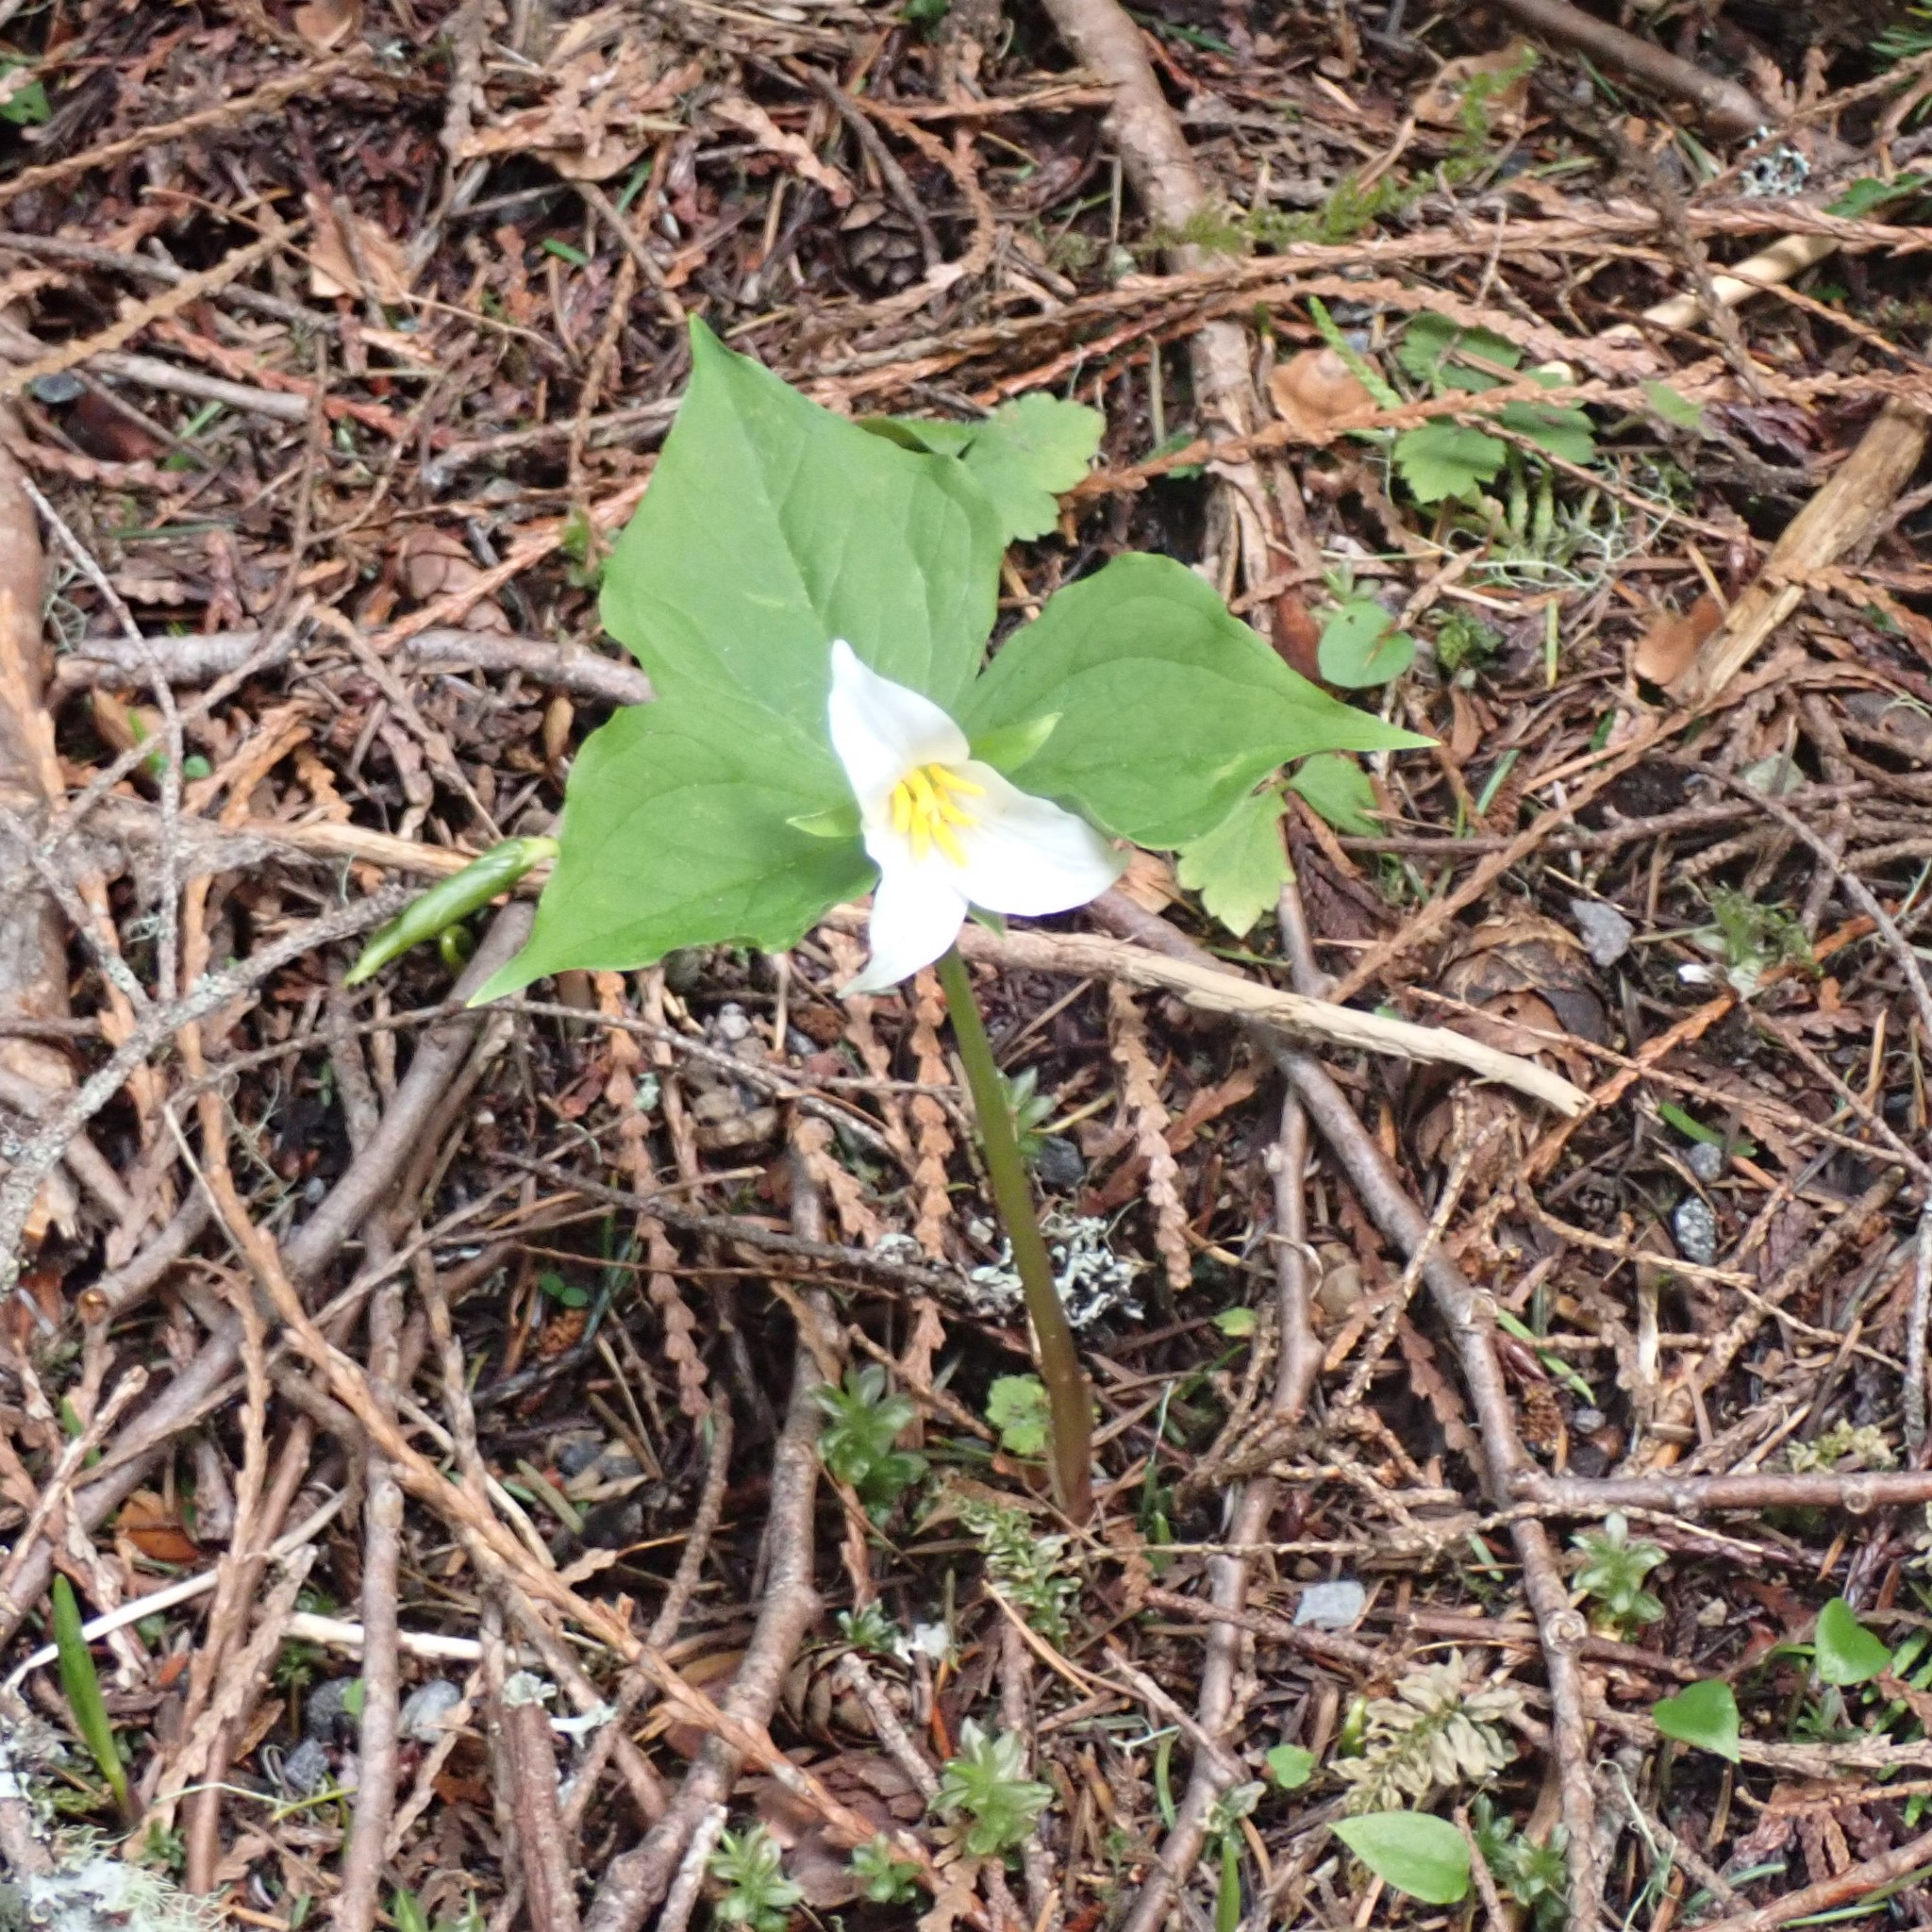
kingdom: Plantae
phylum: Tracheophyta
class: Liliopsida
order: Liliales
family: Melanthiaceae
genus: Trillium
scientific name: Trillium ovatum
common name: Pacific trillium
